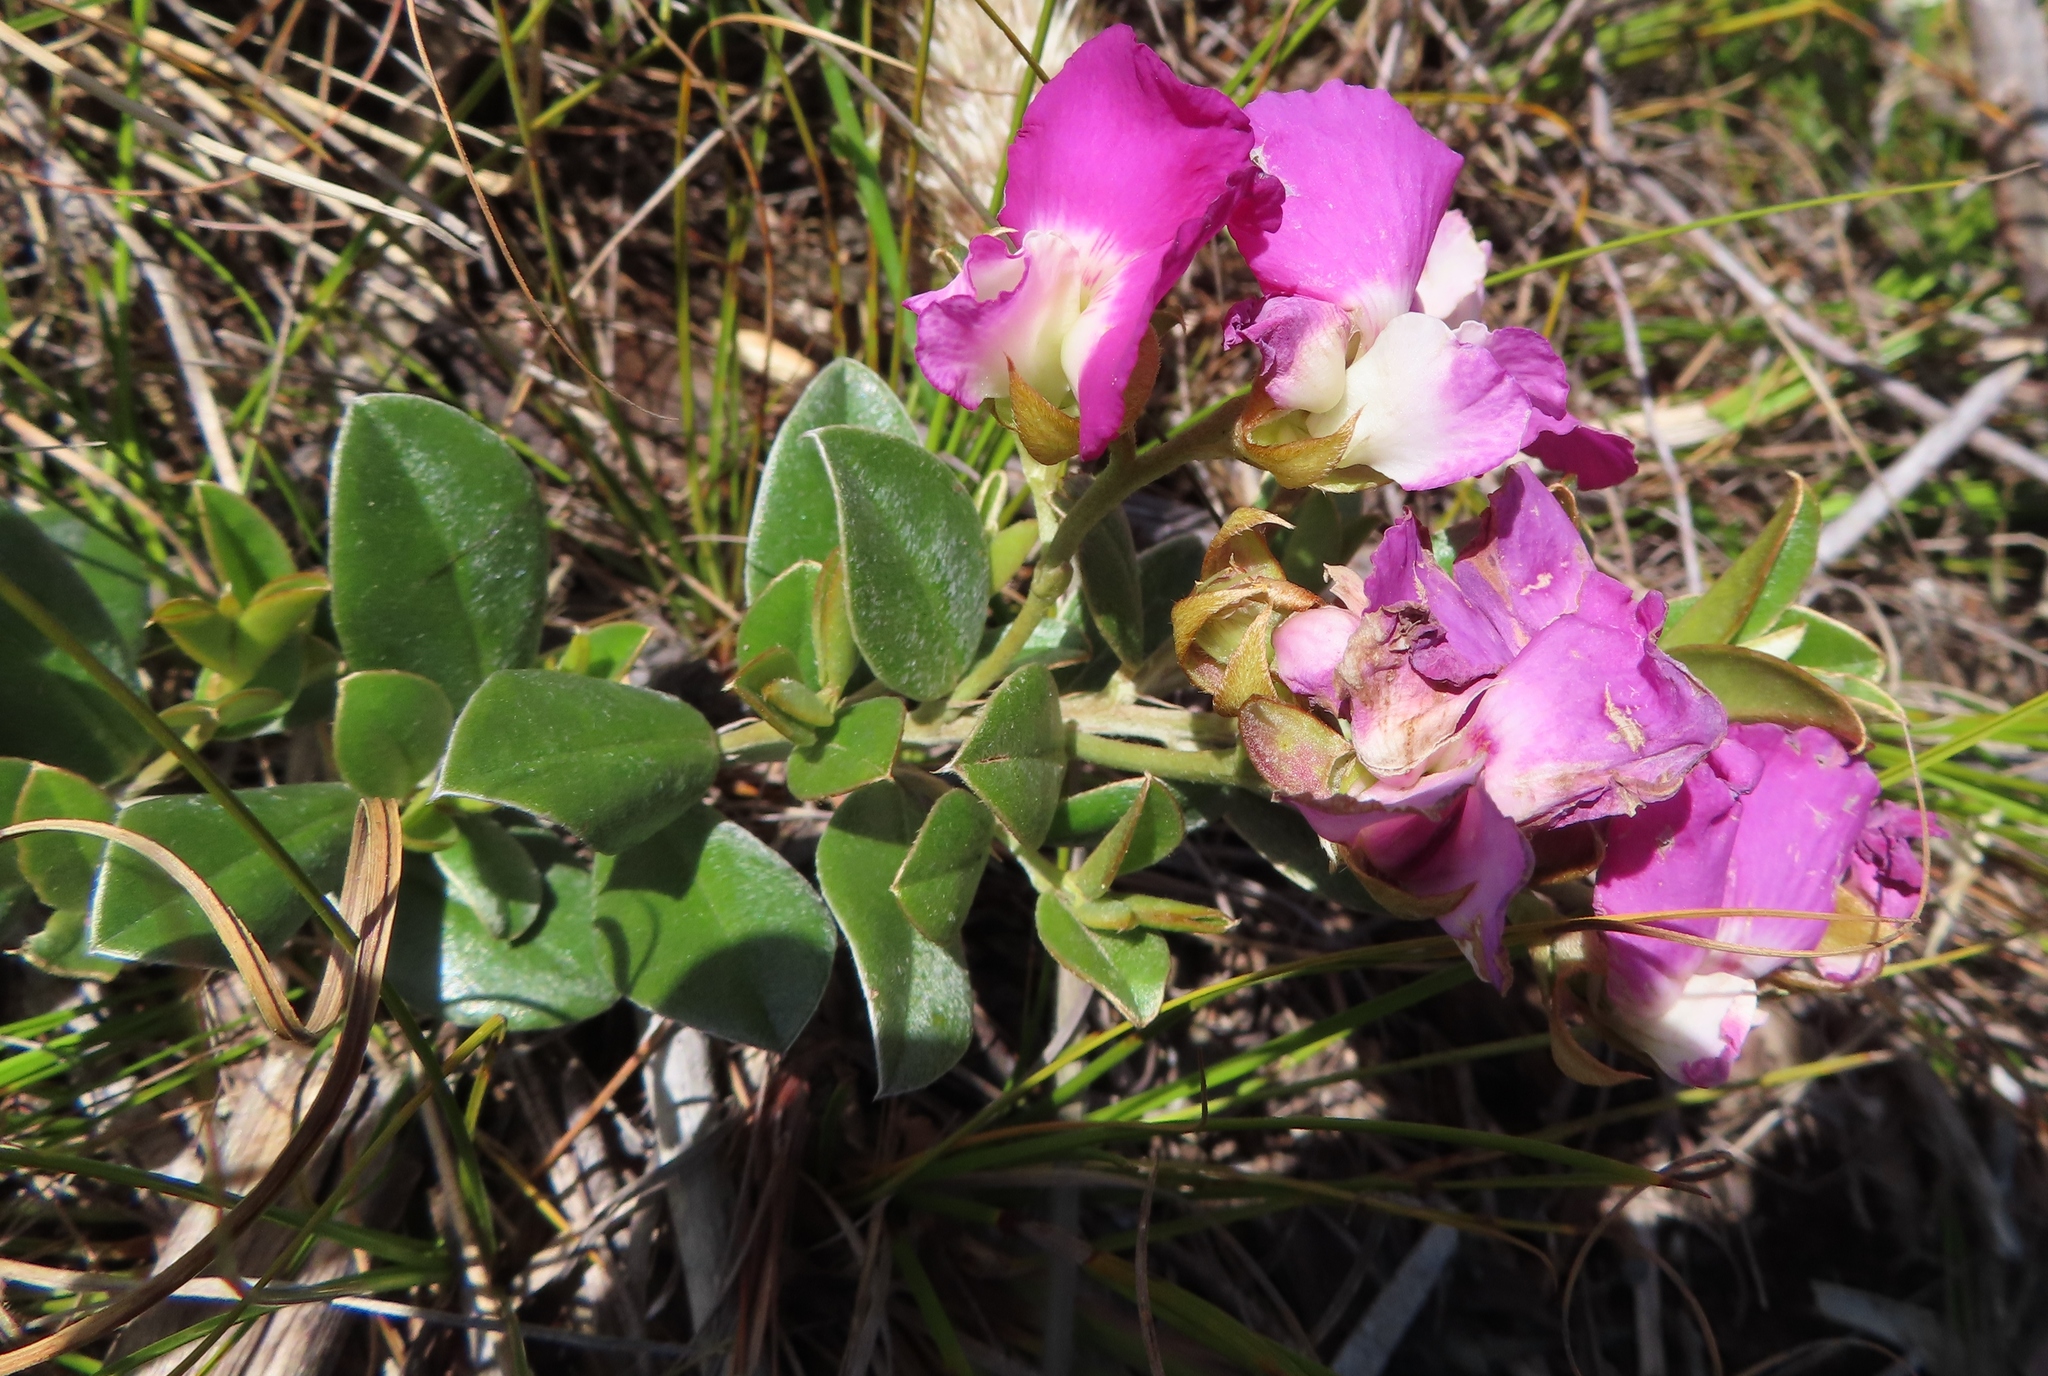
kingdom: Plantae
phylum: Tracheophyta
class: Magnoliopsida
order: Fabales
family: Fabaceae
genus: Podalyria
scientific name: Podalyria biflora
